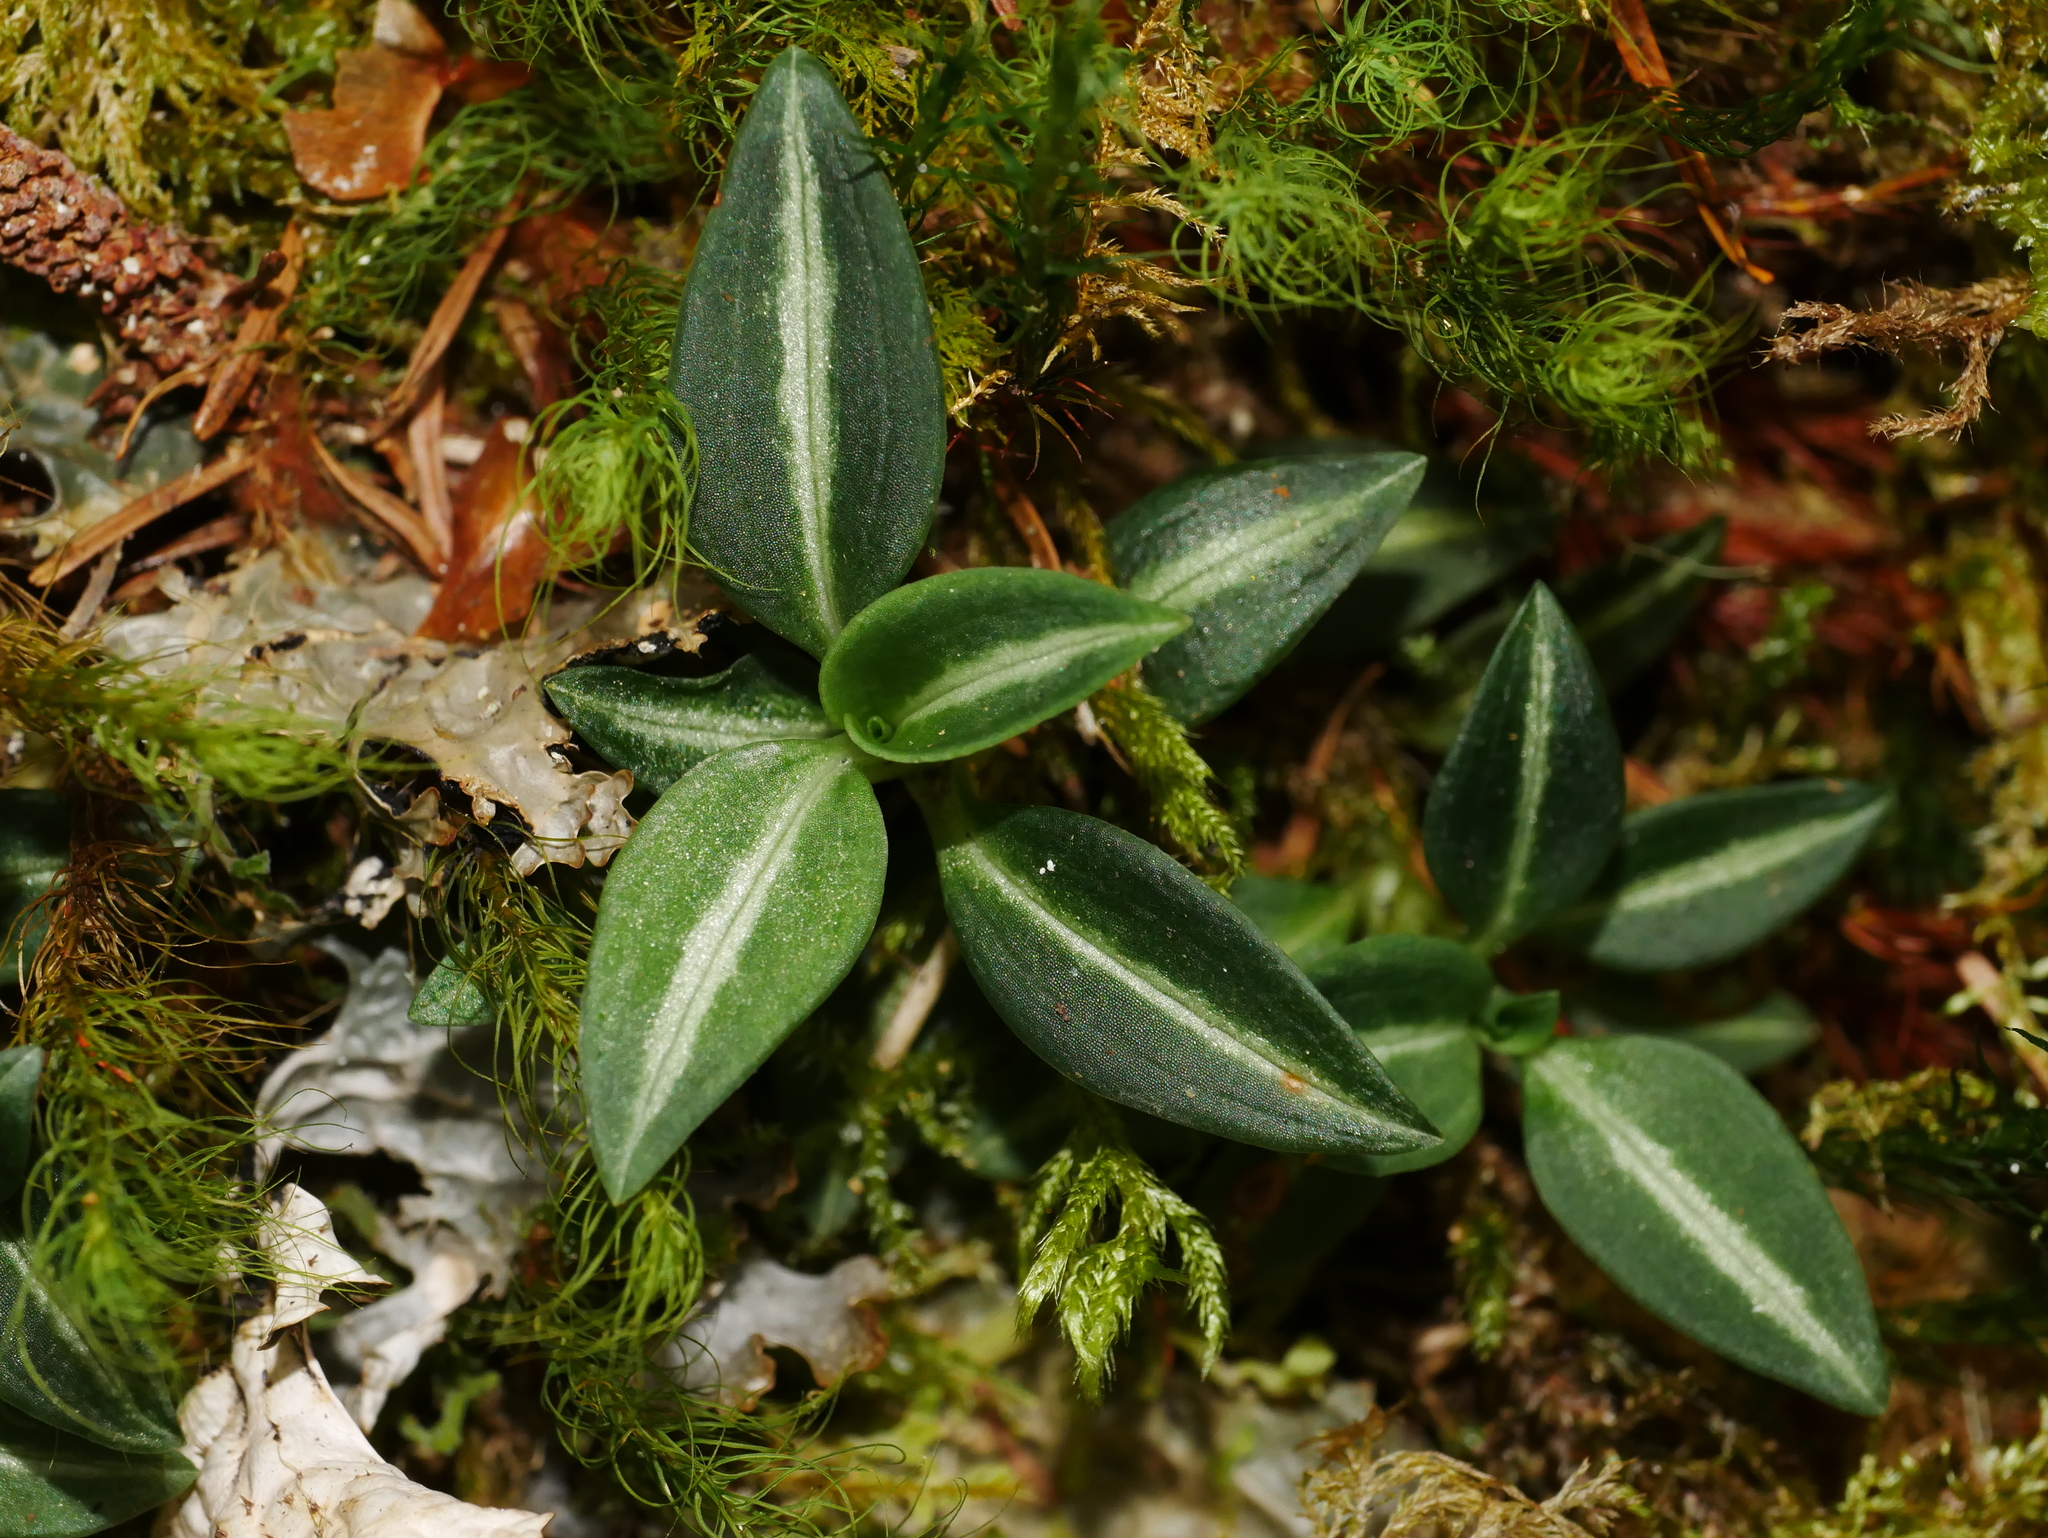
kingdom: Plantae
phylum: Tracheophyta
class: Liliopsida
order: Asparagales
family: Orchidaceae
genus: Goodyera
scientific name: Goodyera nankoensis
